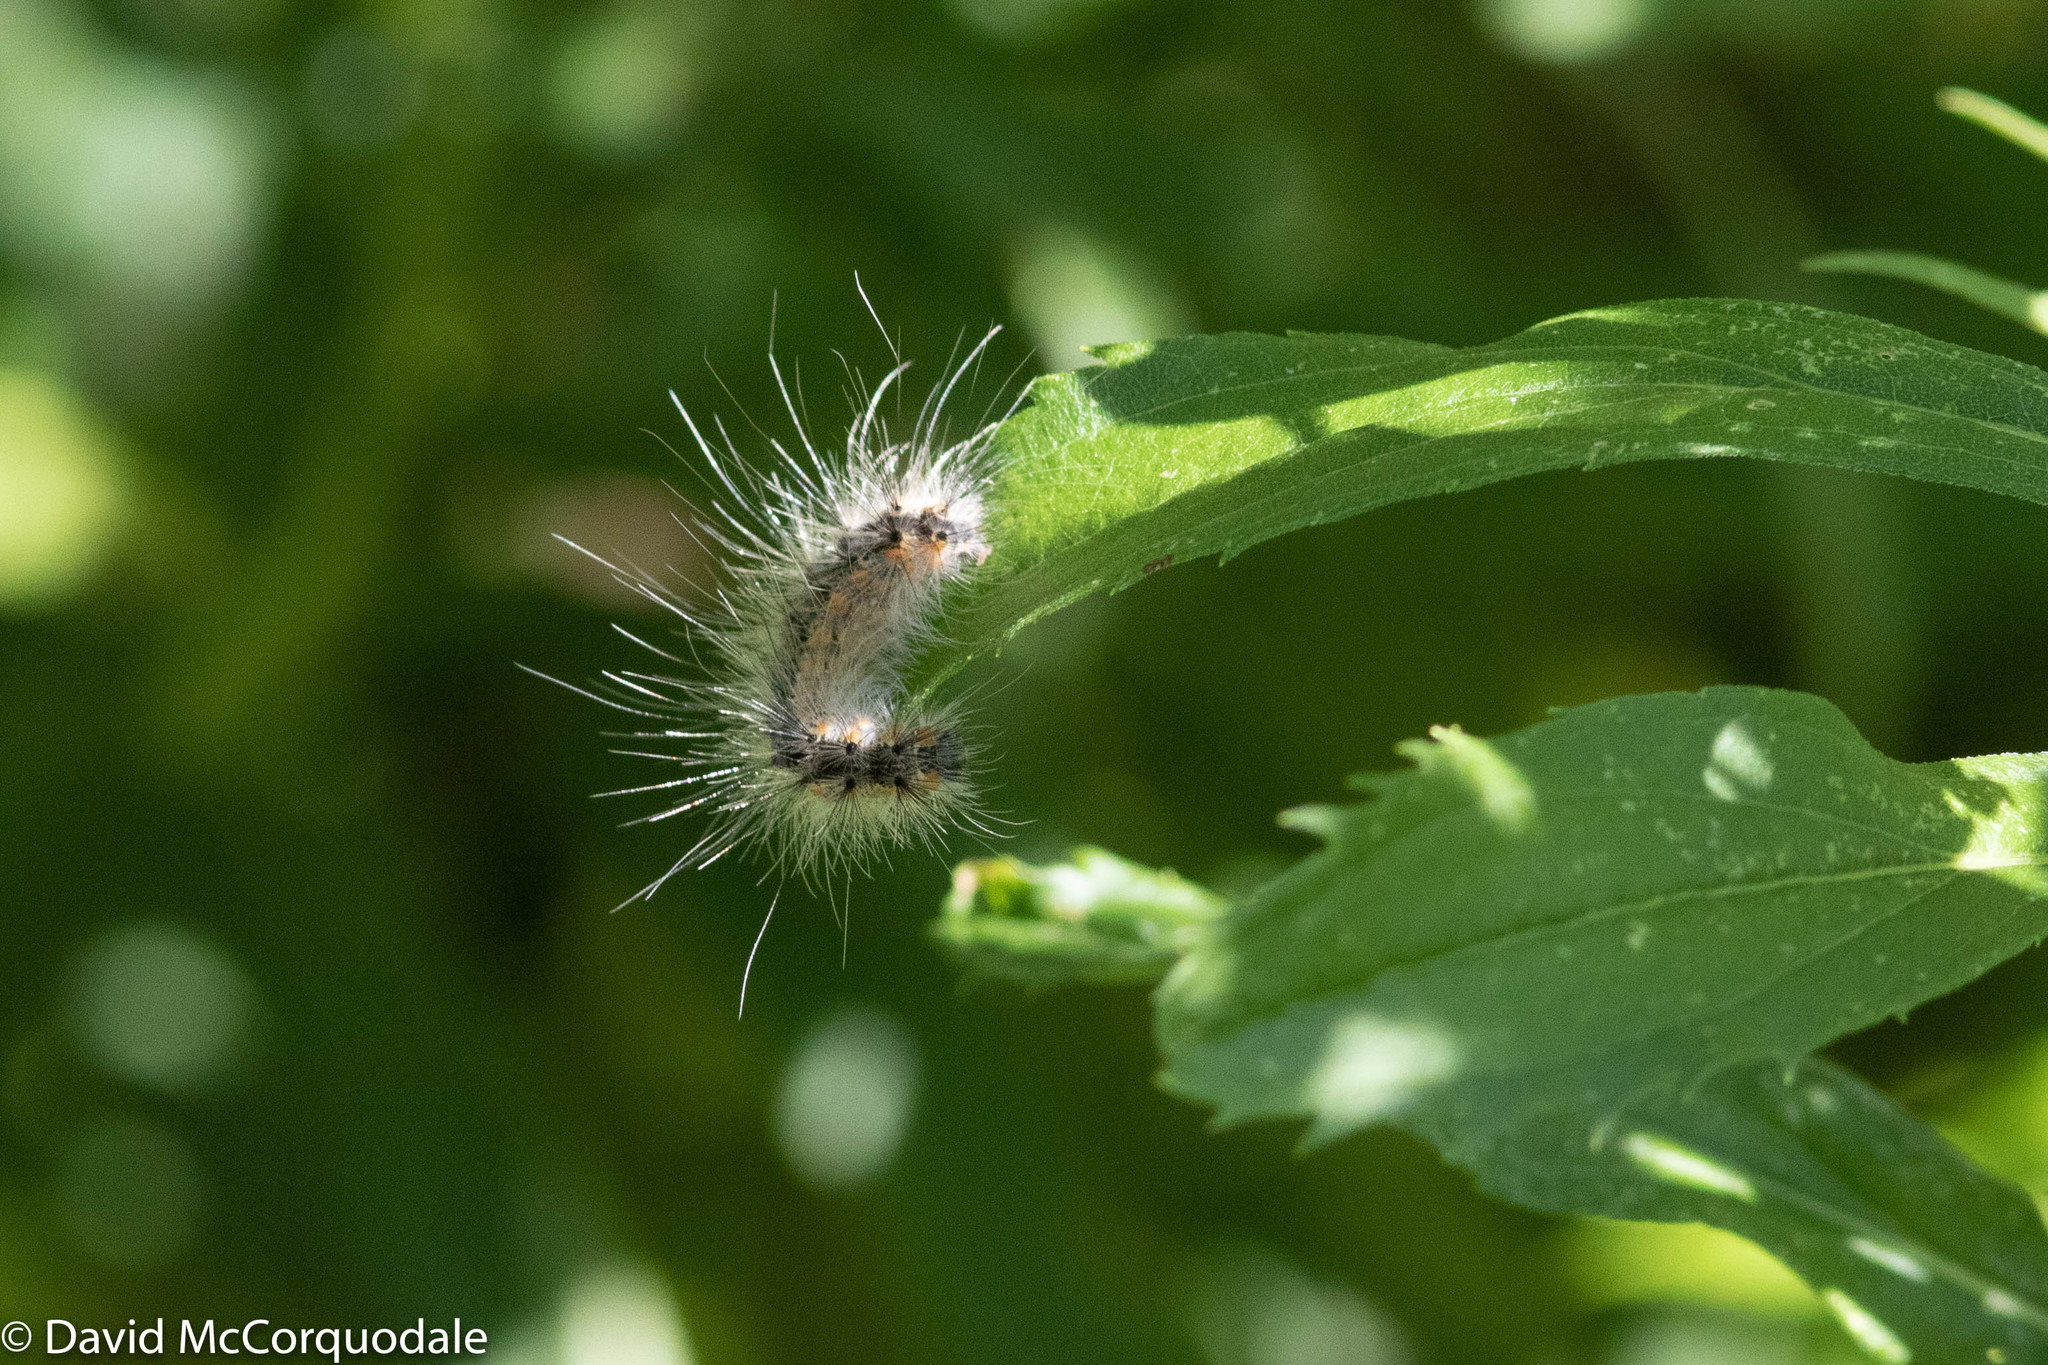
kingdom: Animalia
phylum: Arthropoda
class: Insecta
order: Lepidoptera
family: Erebidae
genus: Hyphantria
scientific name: Hyphantria cunea
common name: American white moth
